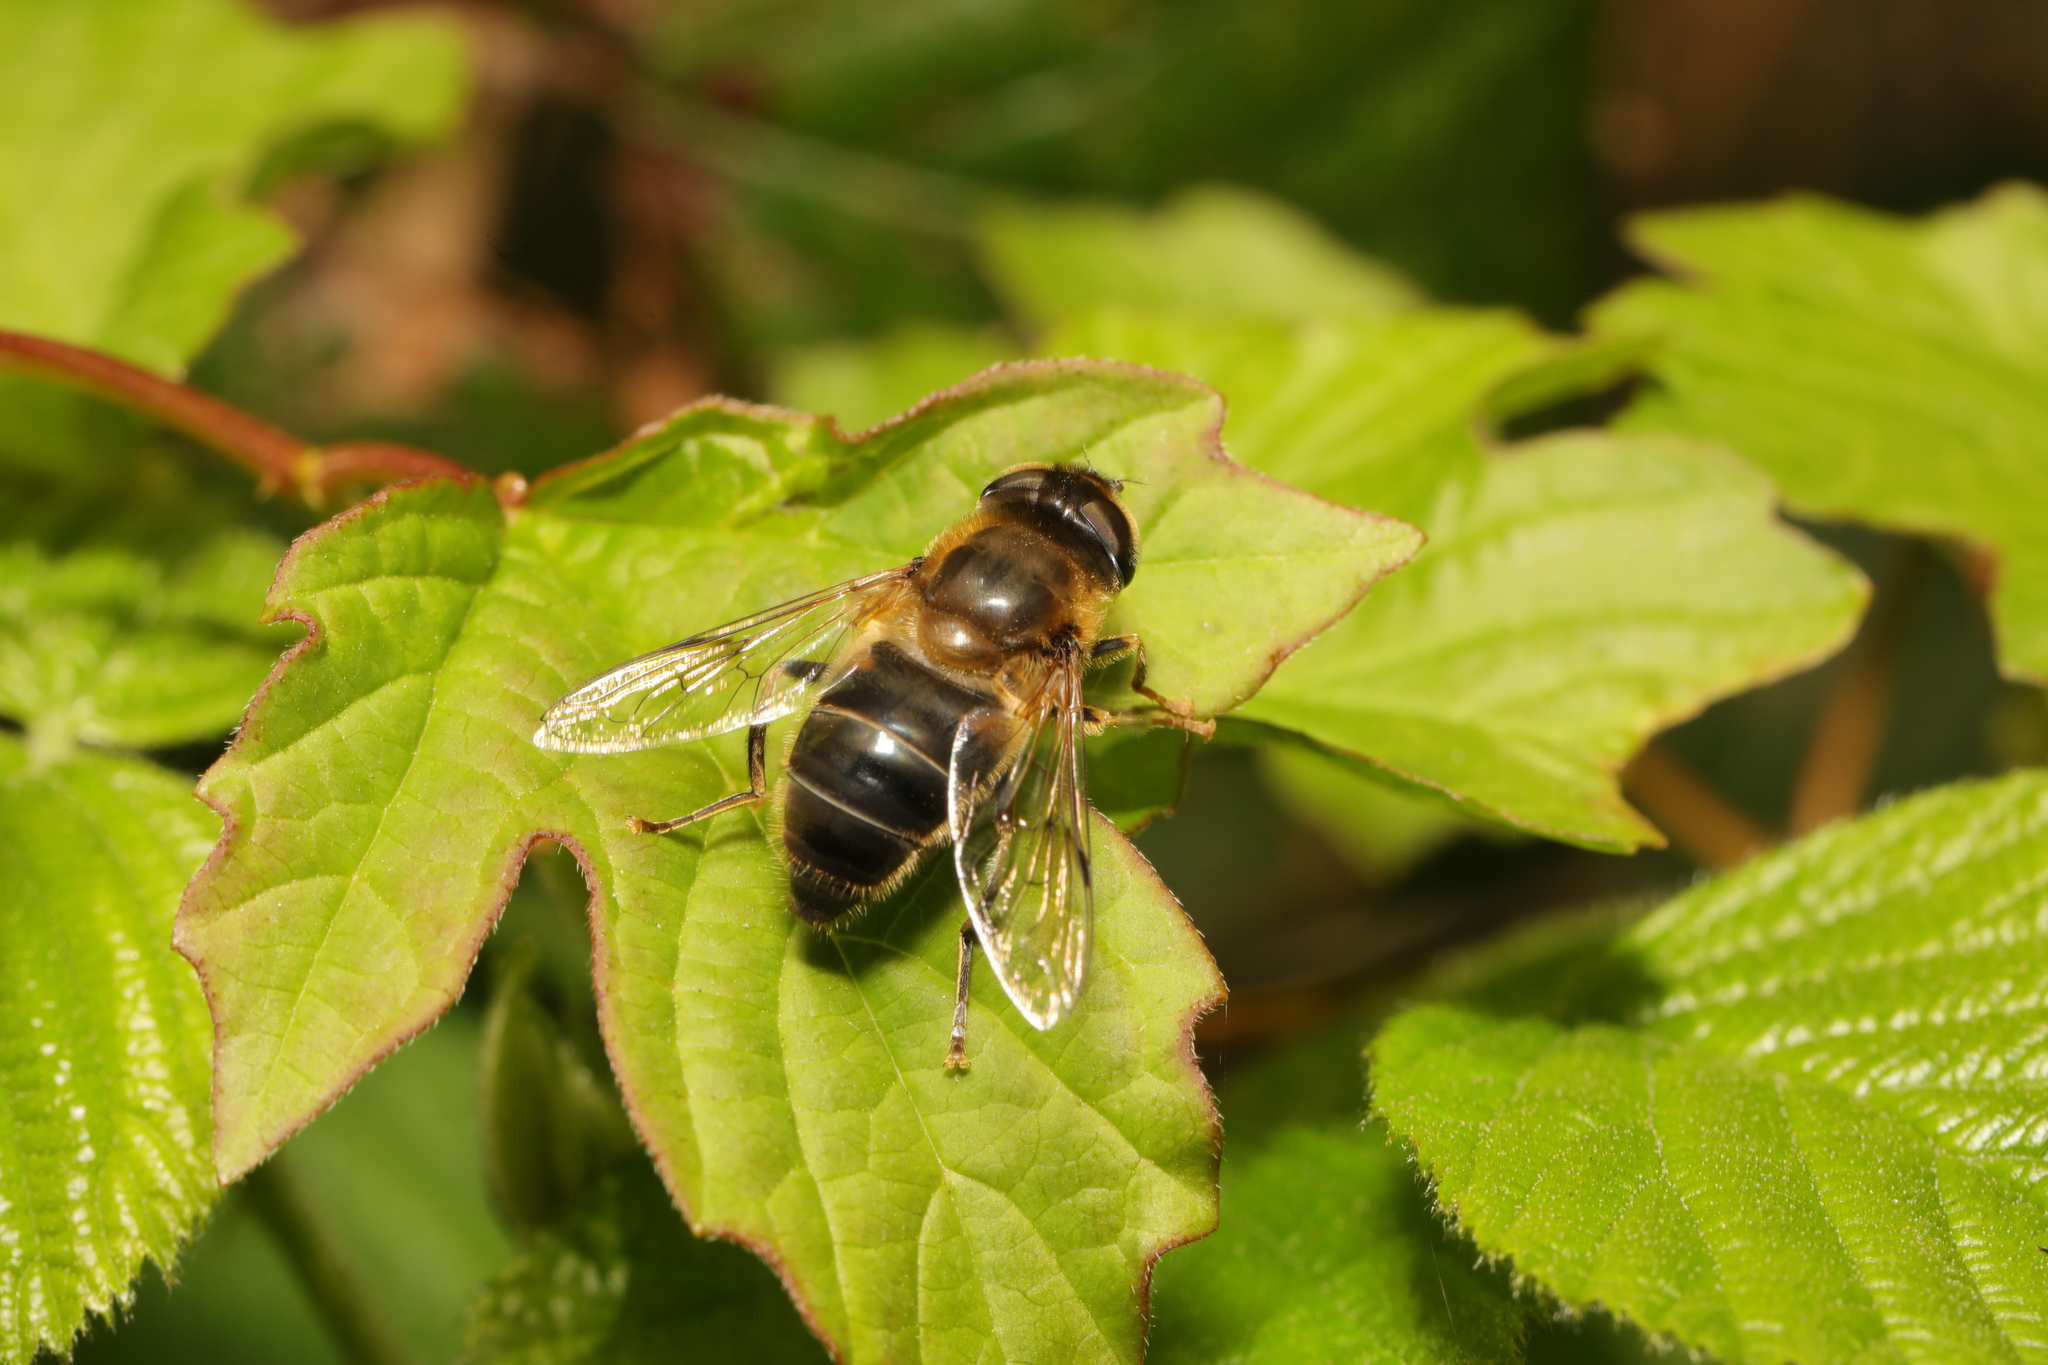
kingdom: Animalia
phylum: Arthropoda
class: Insecta
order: Diptera
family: Syrphidae
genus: Eristalis
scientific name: Eristalis pertinax
